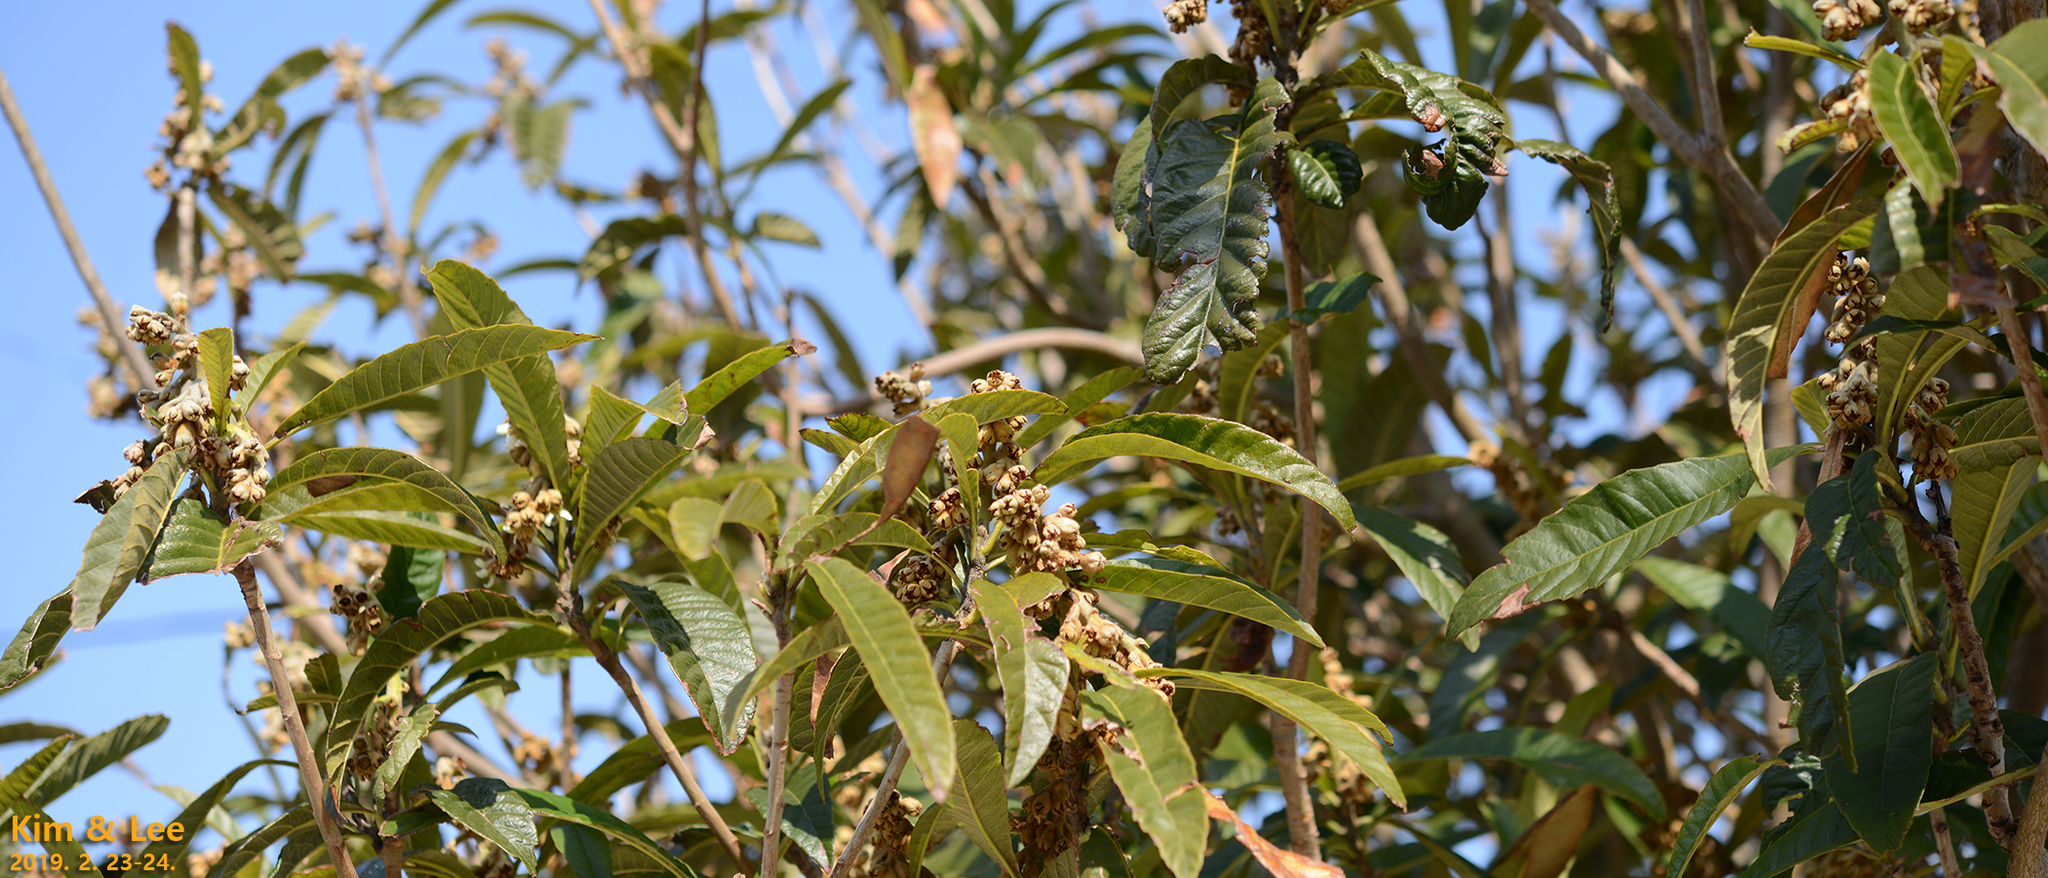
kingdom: Plantae
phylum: Tracheophyta
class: Magnoliopsida
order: Rosales
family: Rosaceae
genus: Rhaphiolepis
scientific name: Rhaphiolepis bibas
